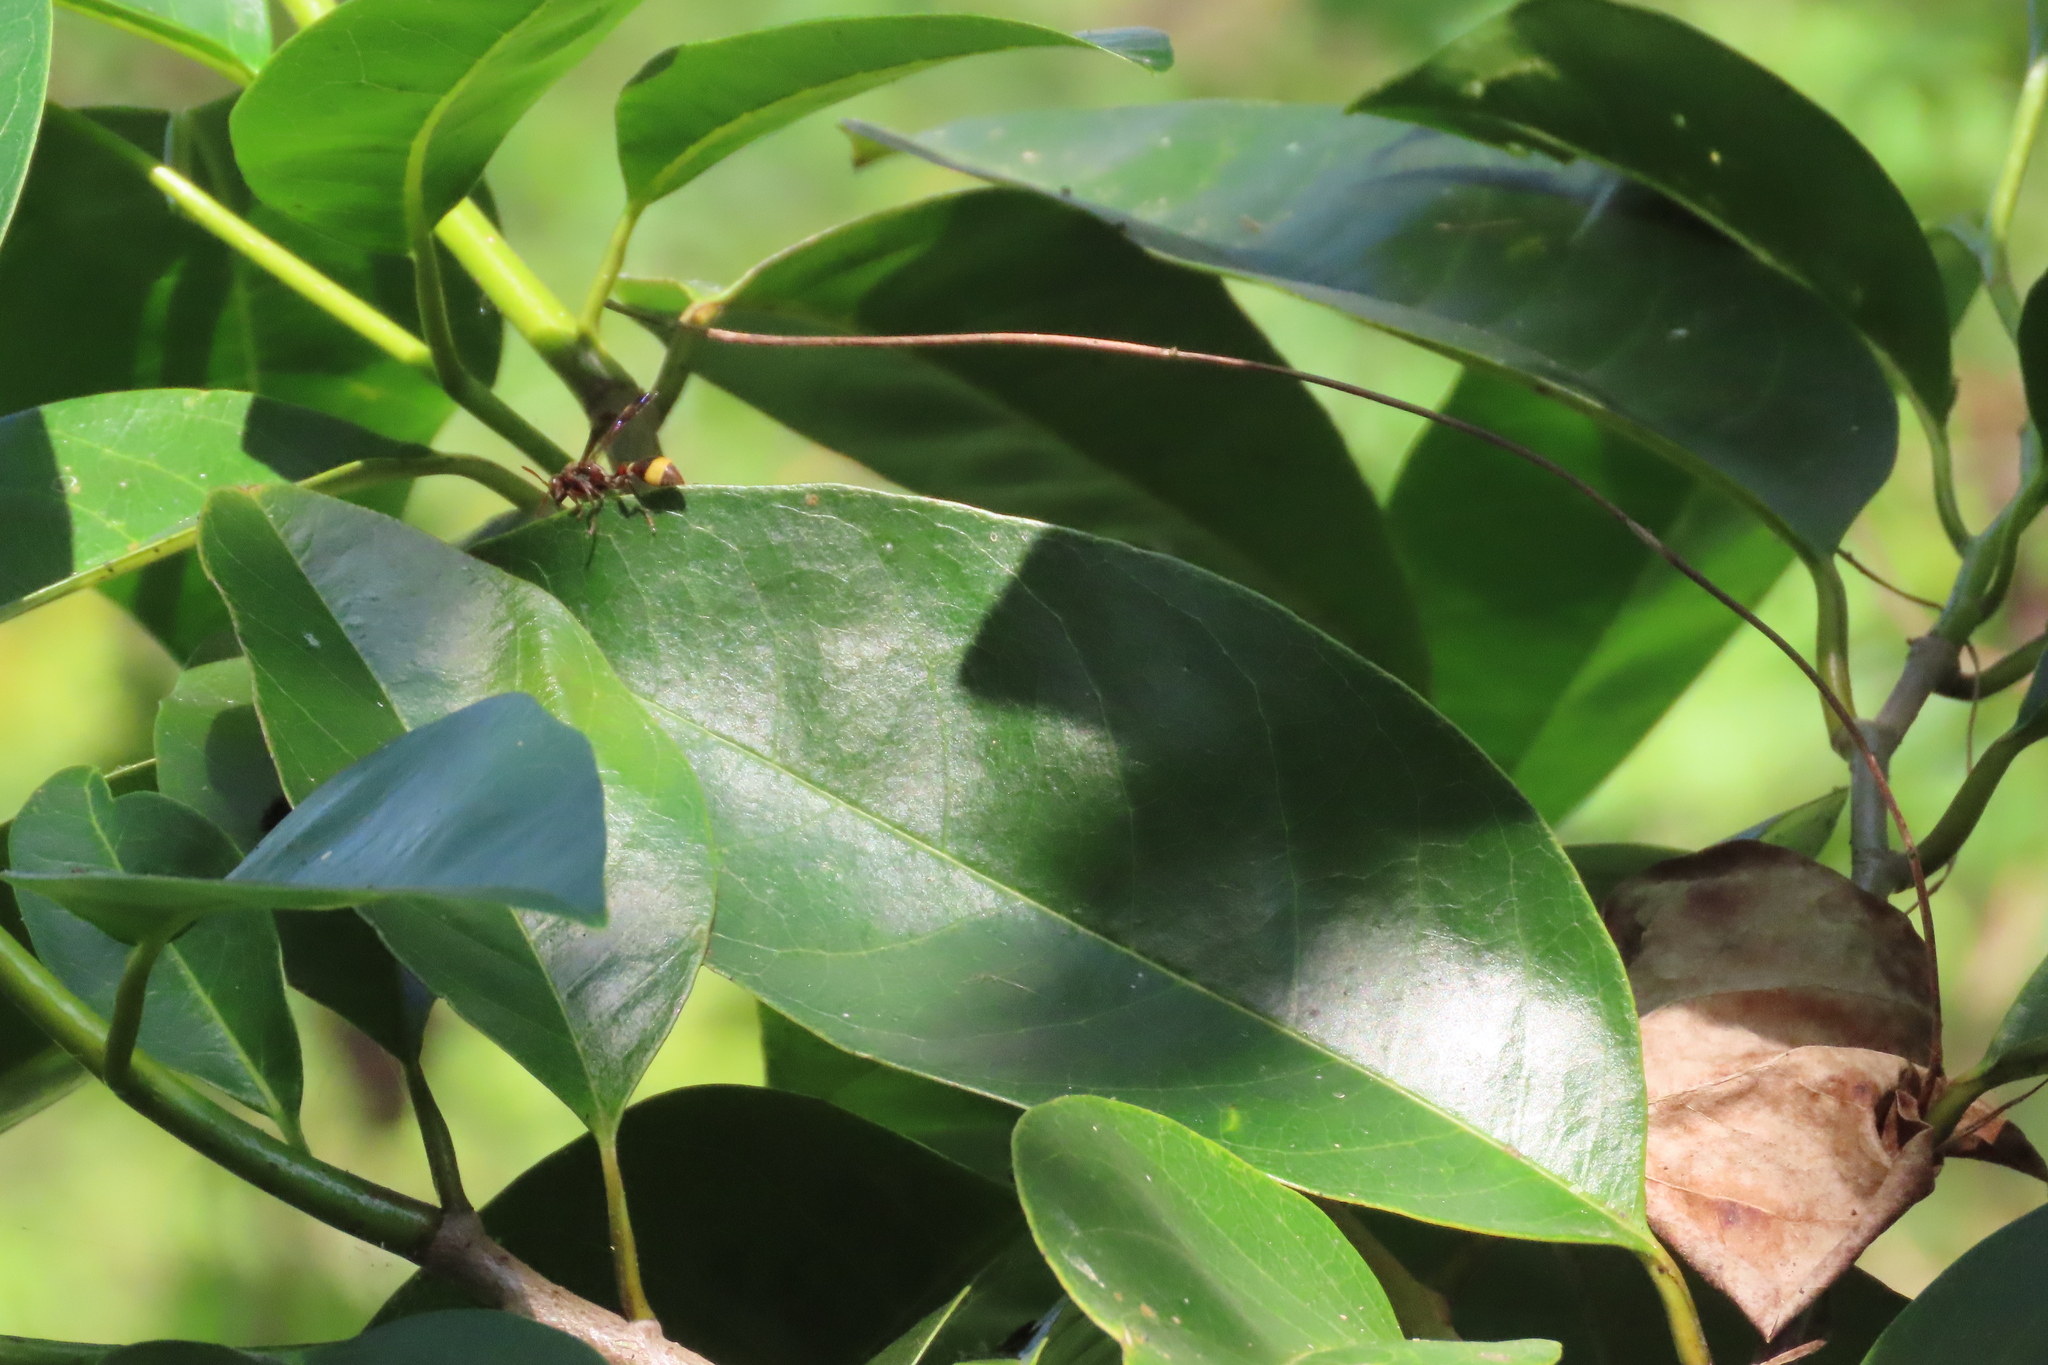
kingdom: Animalia
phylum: Arthropoda
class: Insecta
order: Hymenoptera
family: Vespidae
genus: Ropalidia
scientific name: Ropalidia
